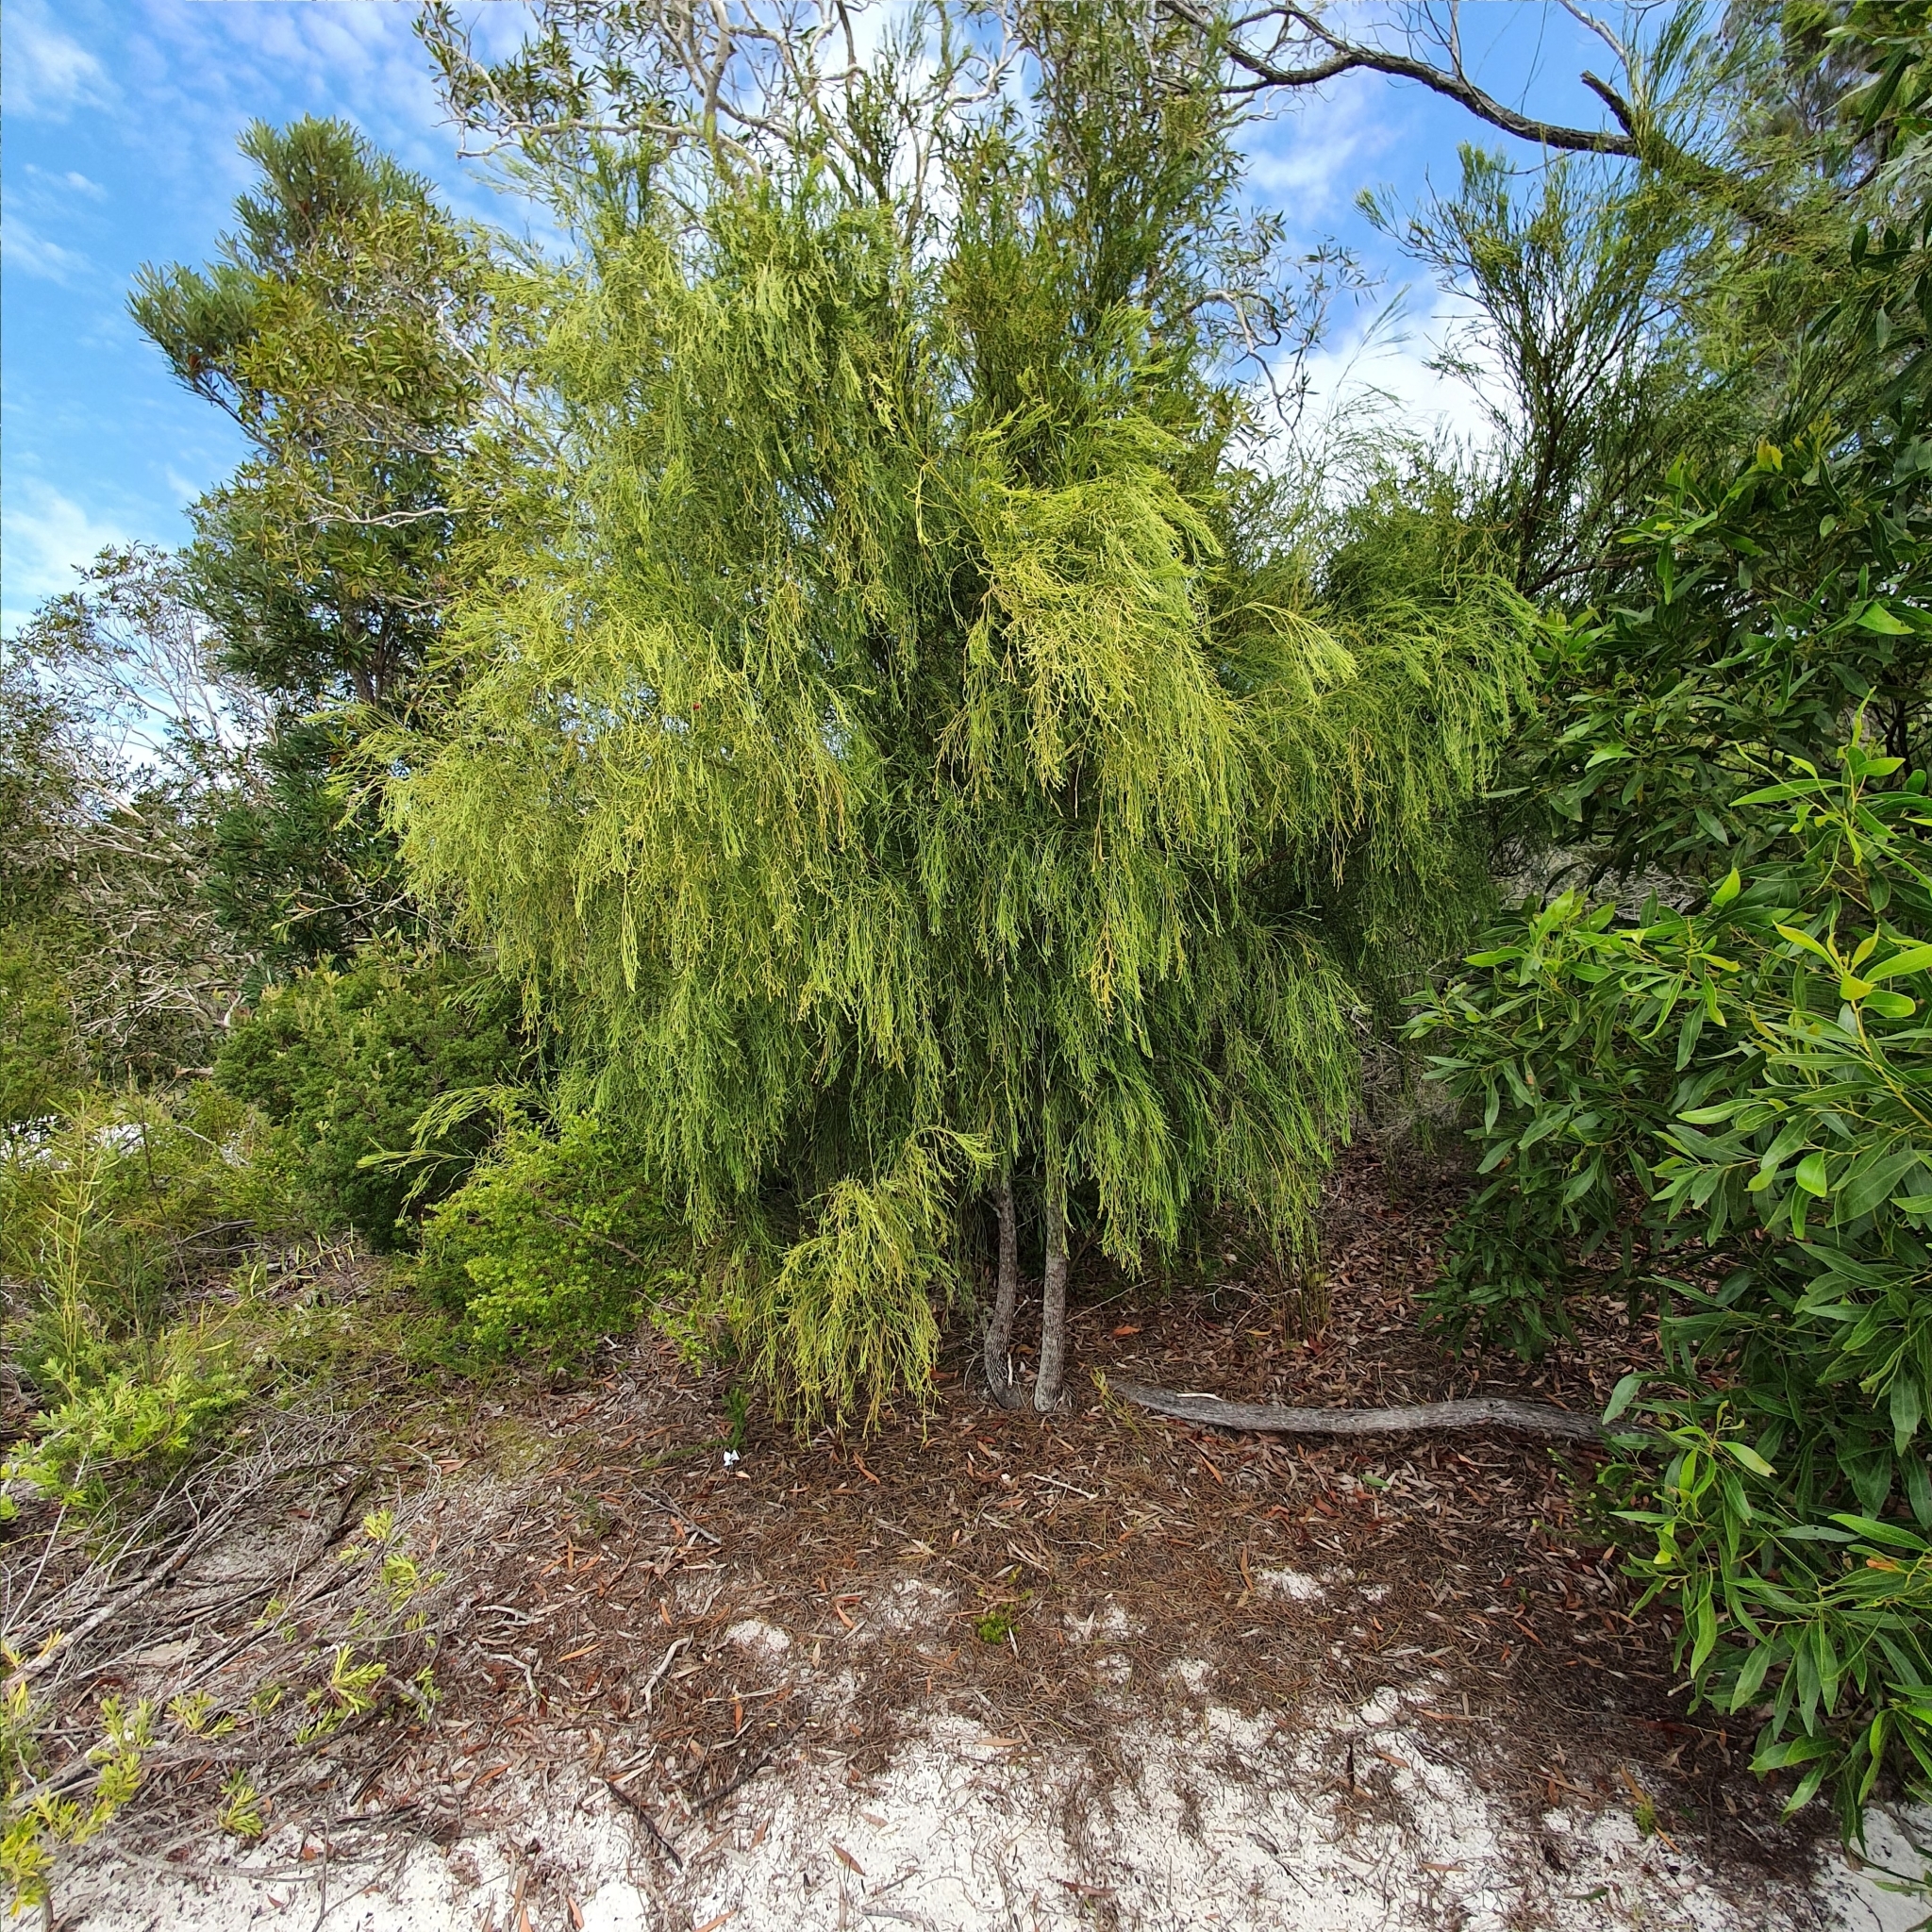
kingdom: Plantae
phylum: Tracheophyta
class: Magnoliopsida
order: Santalales
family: Santalaceae
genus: Exocarpos
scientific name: Exocarpos cupressiformis
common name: Cherry ballart
